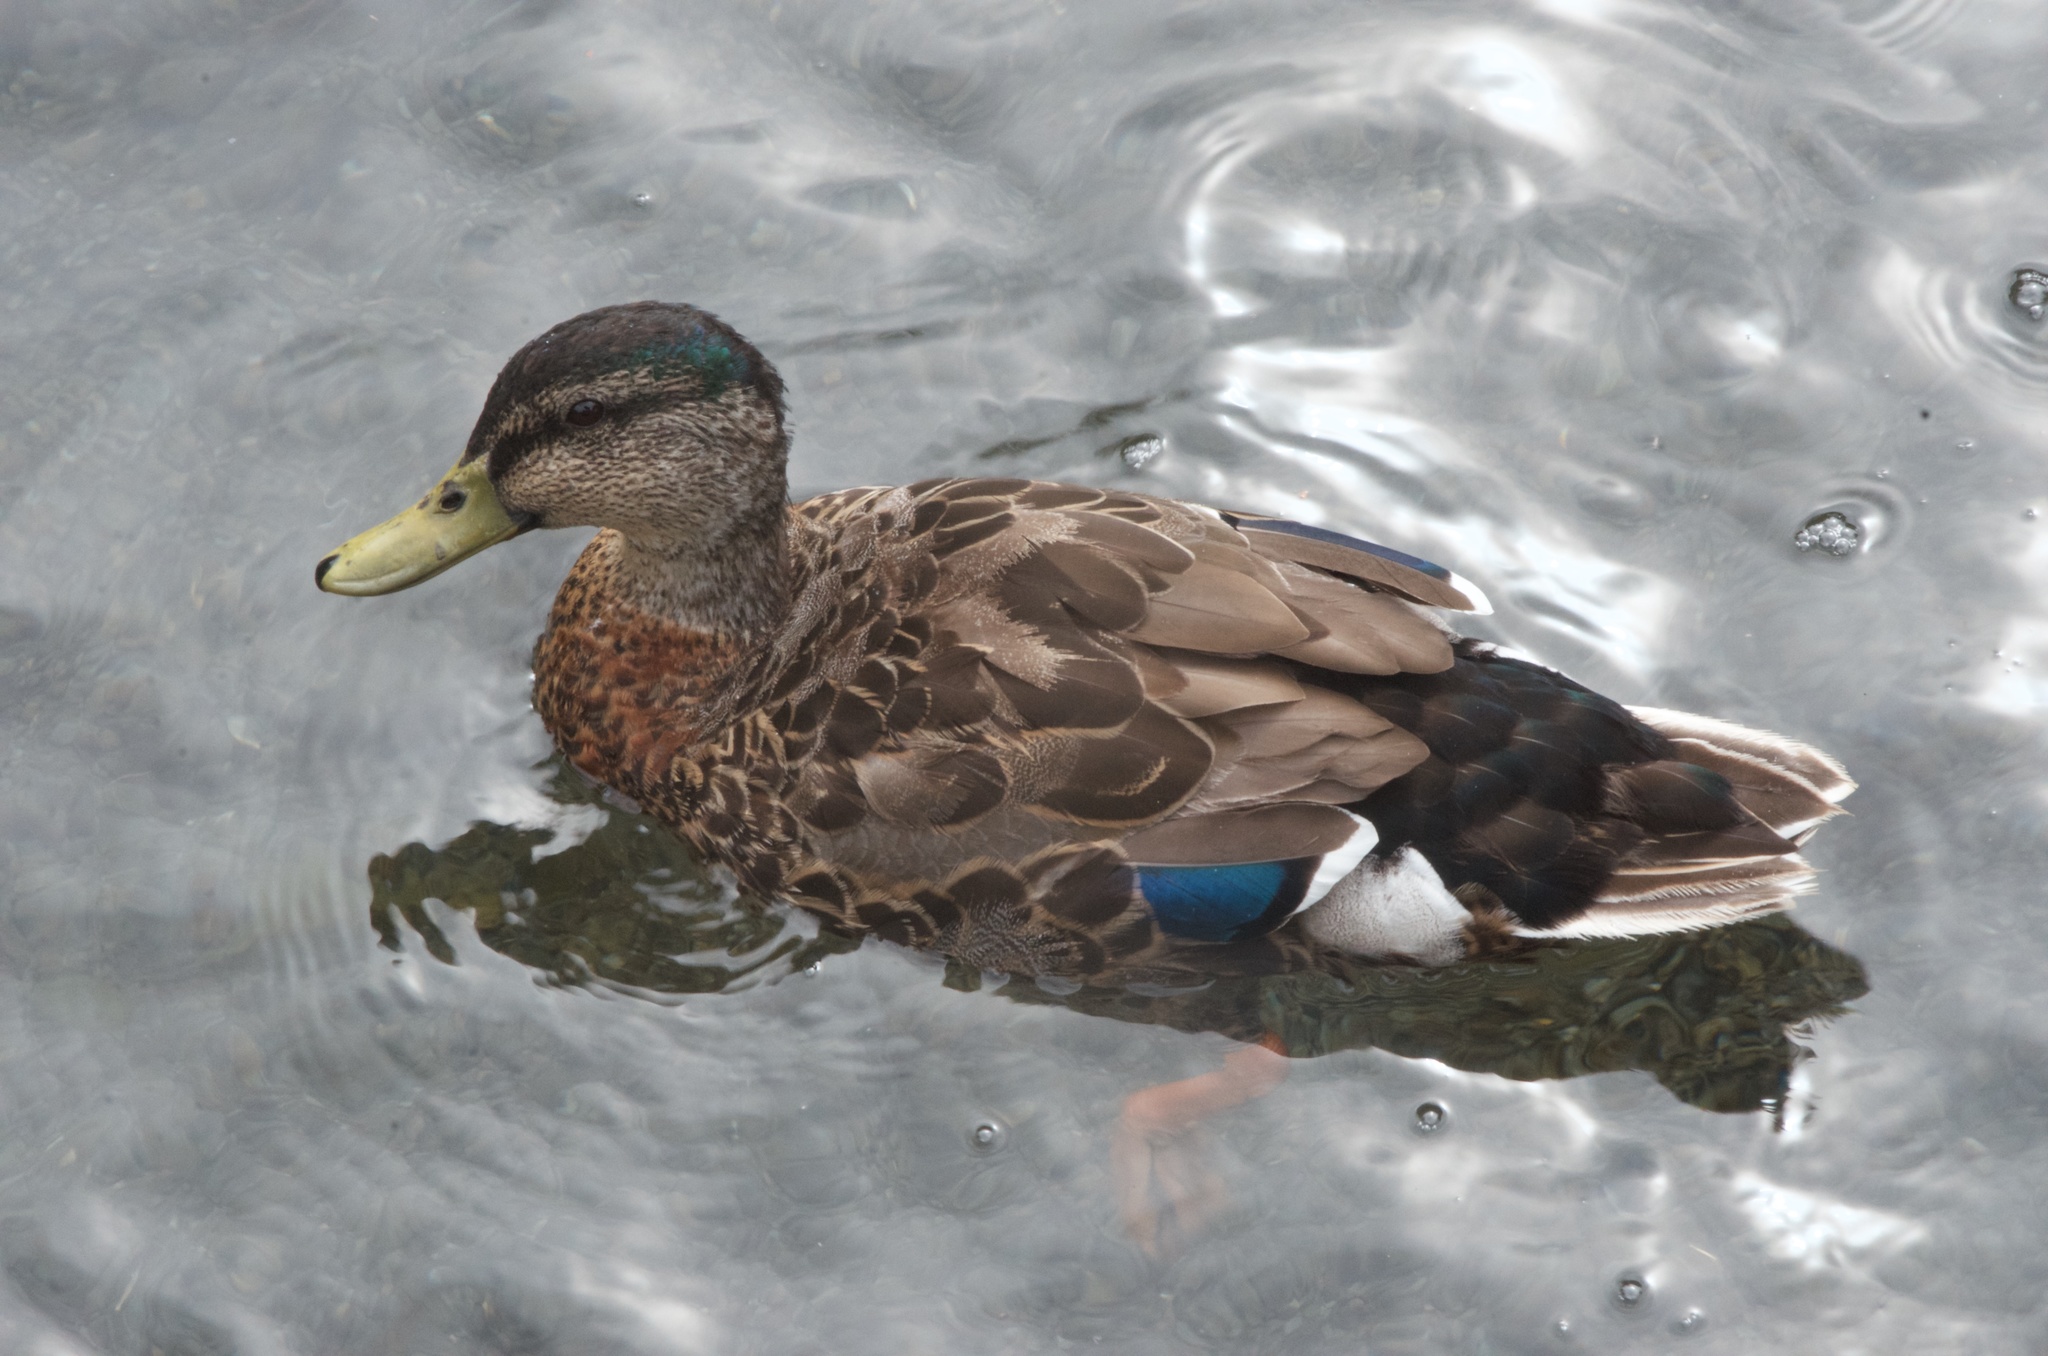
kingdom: Animalia
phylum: Chordata
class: Aves
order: Anseriformes
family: Anatidae
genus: Anas
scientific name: Anas platyrhynchos
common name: Mallard
